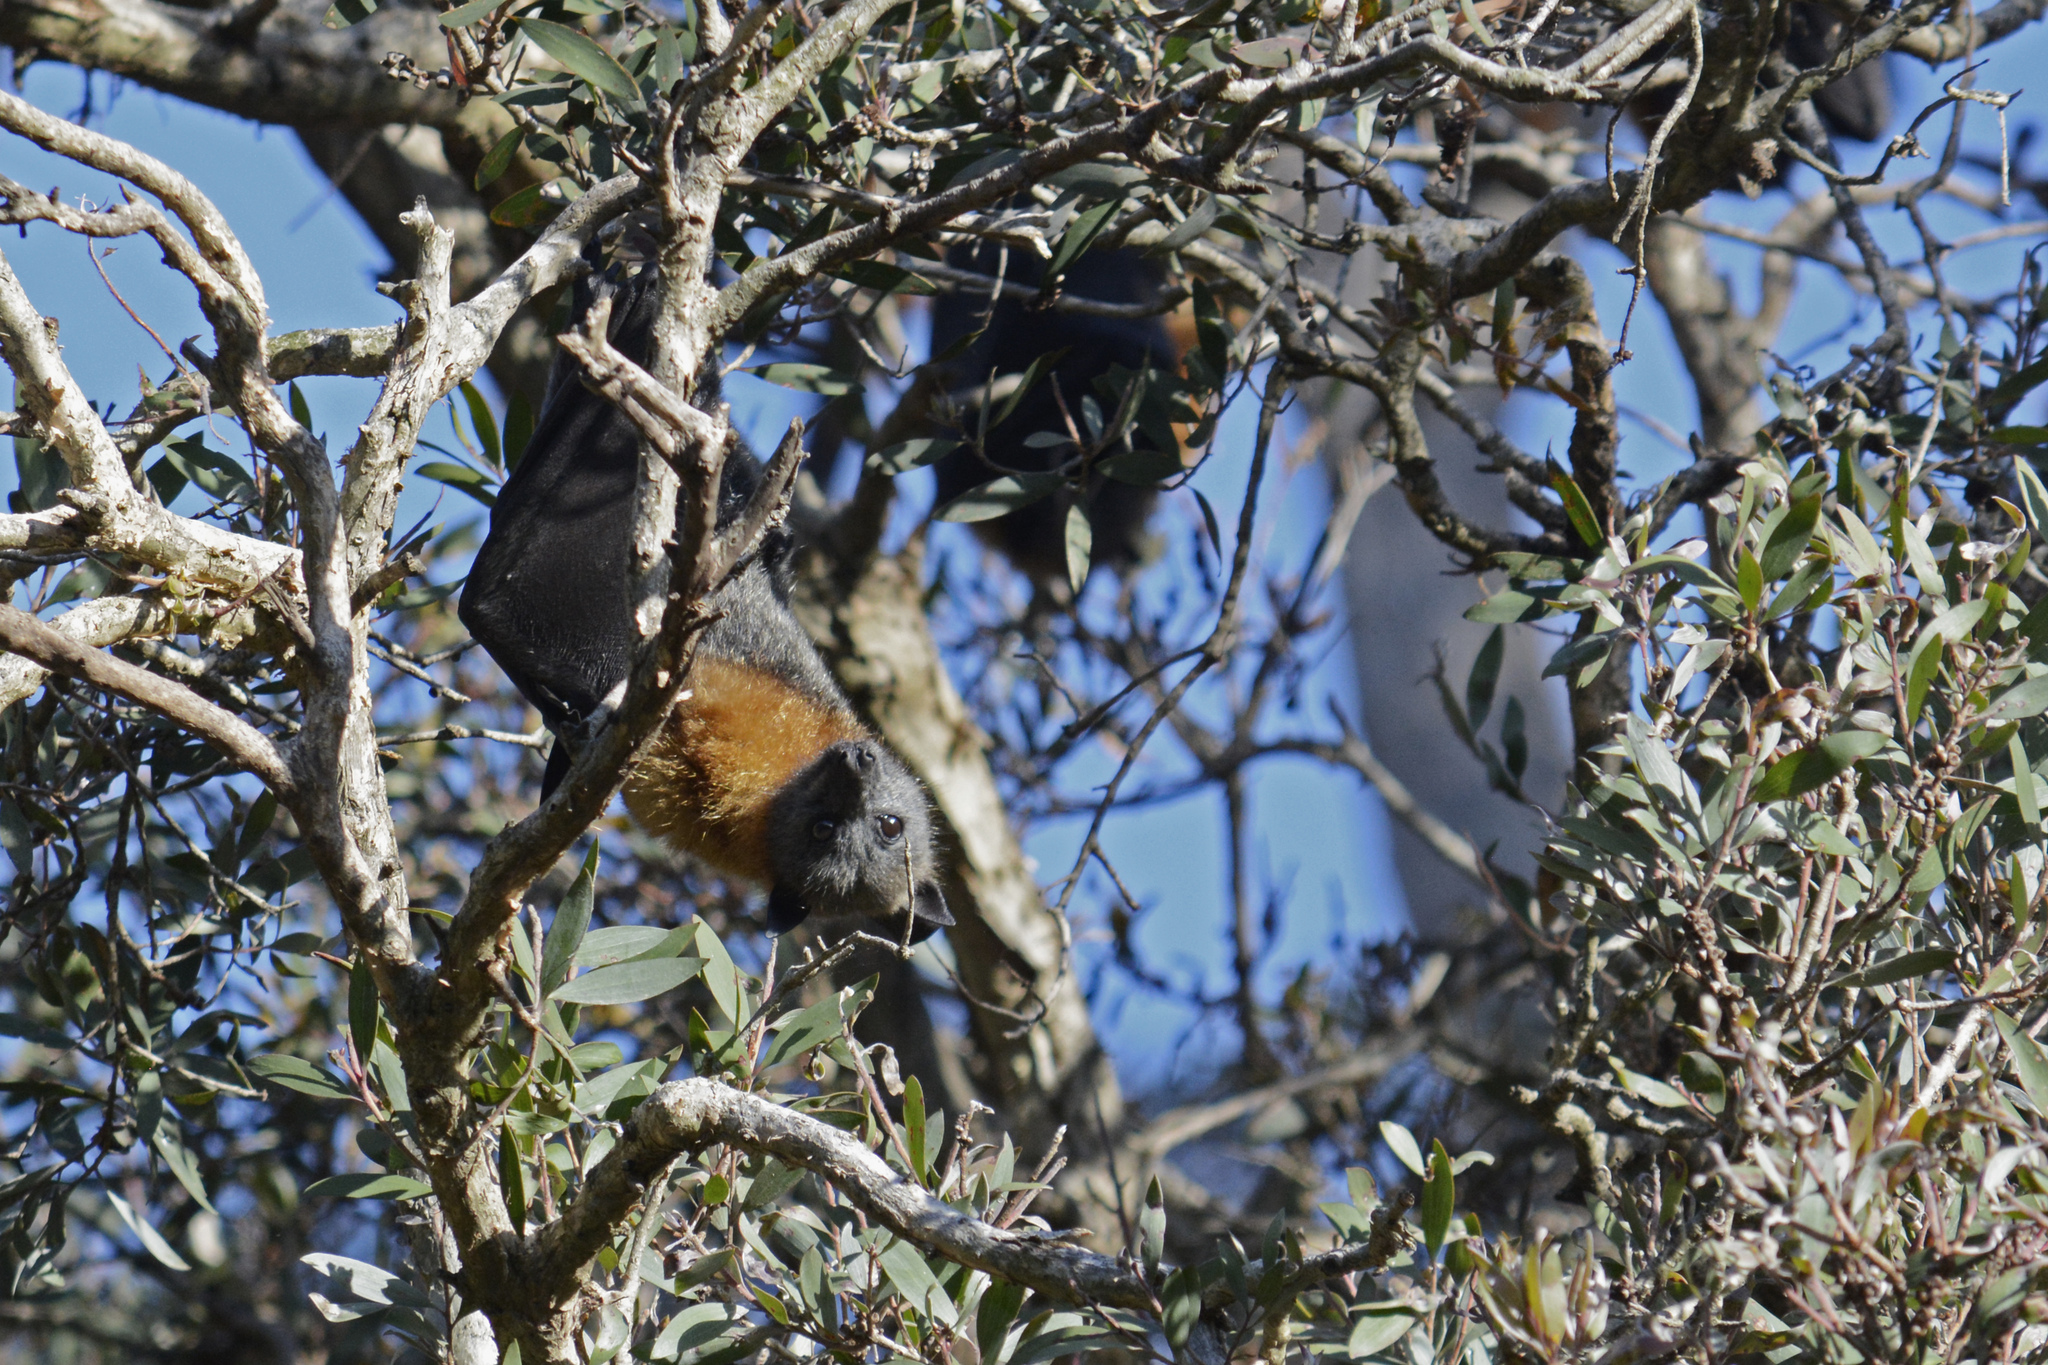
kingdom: Animalia
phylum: Chordata
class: Mammalia
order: Chiroptera
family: Pteropodidae
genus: Pteropus
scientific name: Pteropus poliocephalus
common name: Gray-headed flying fox
